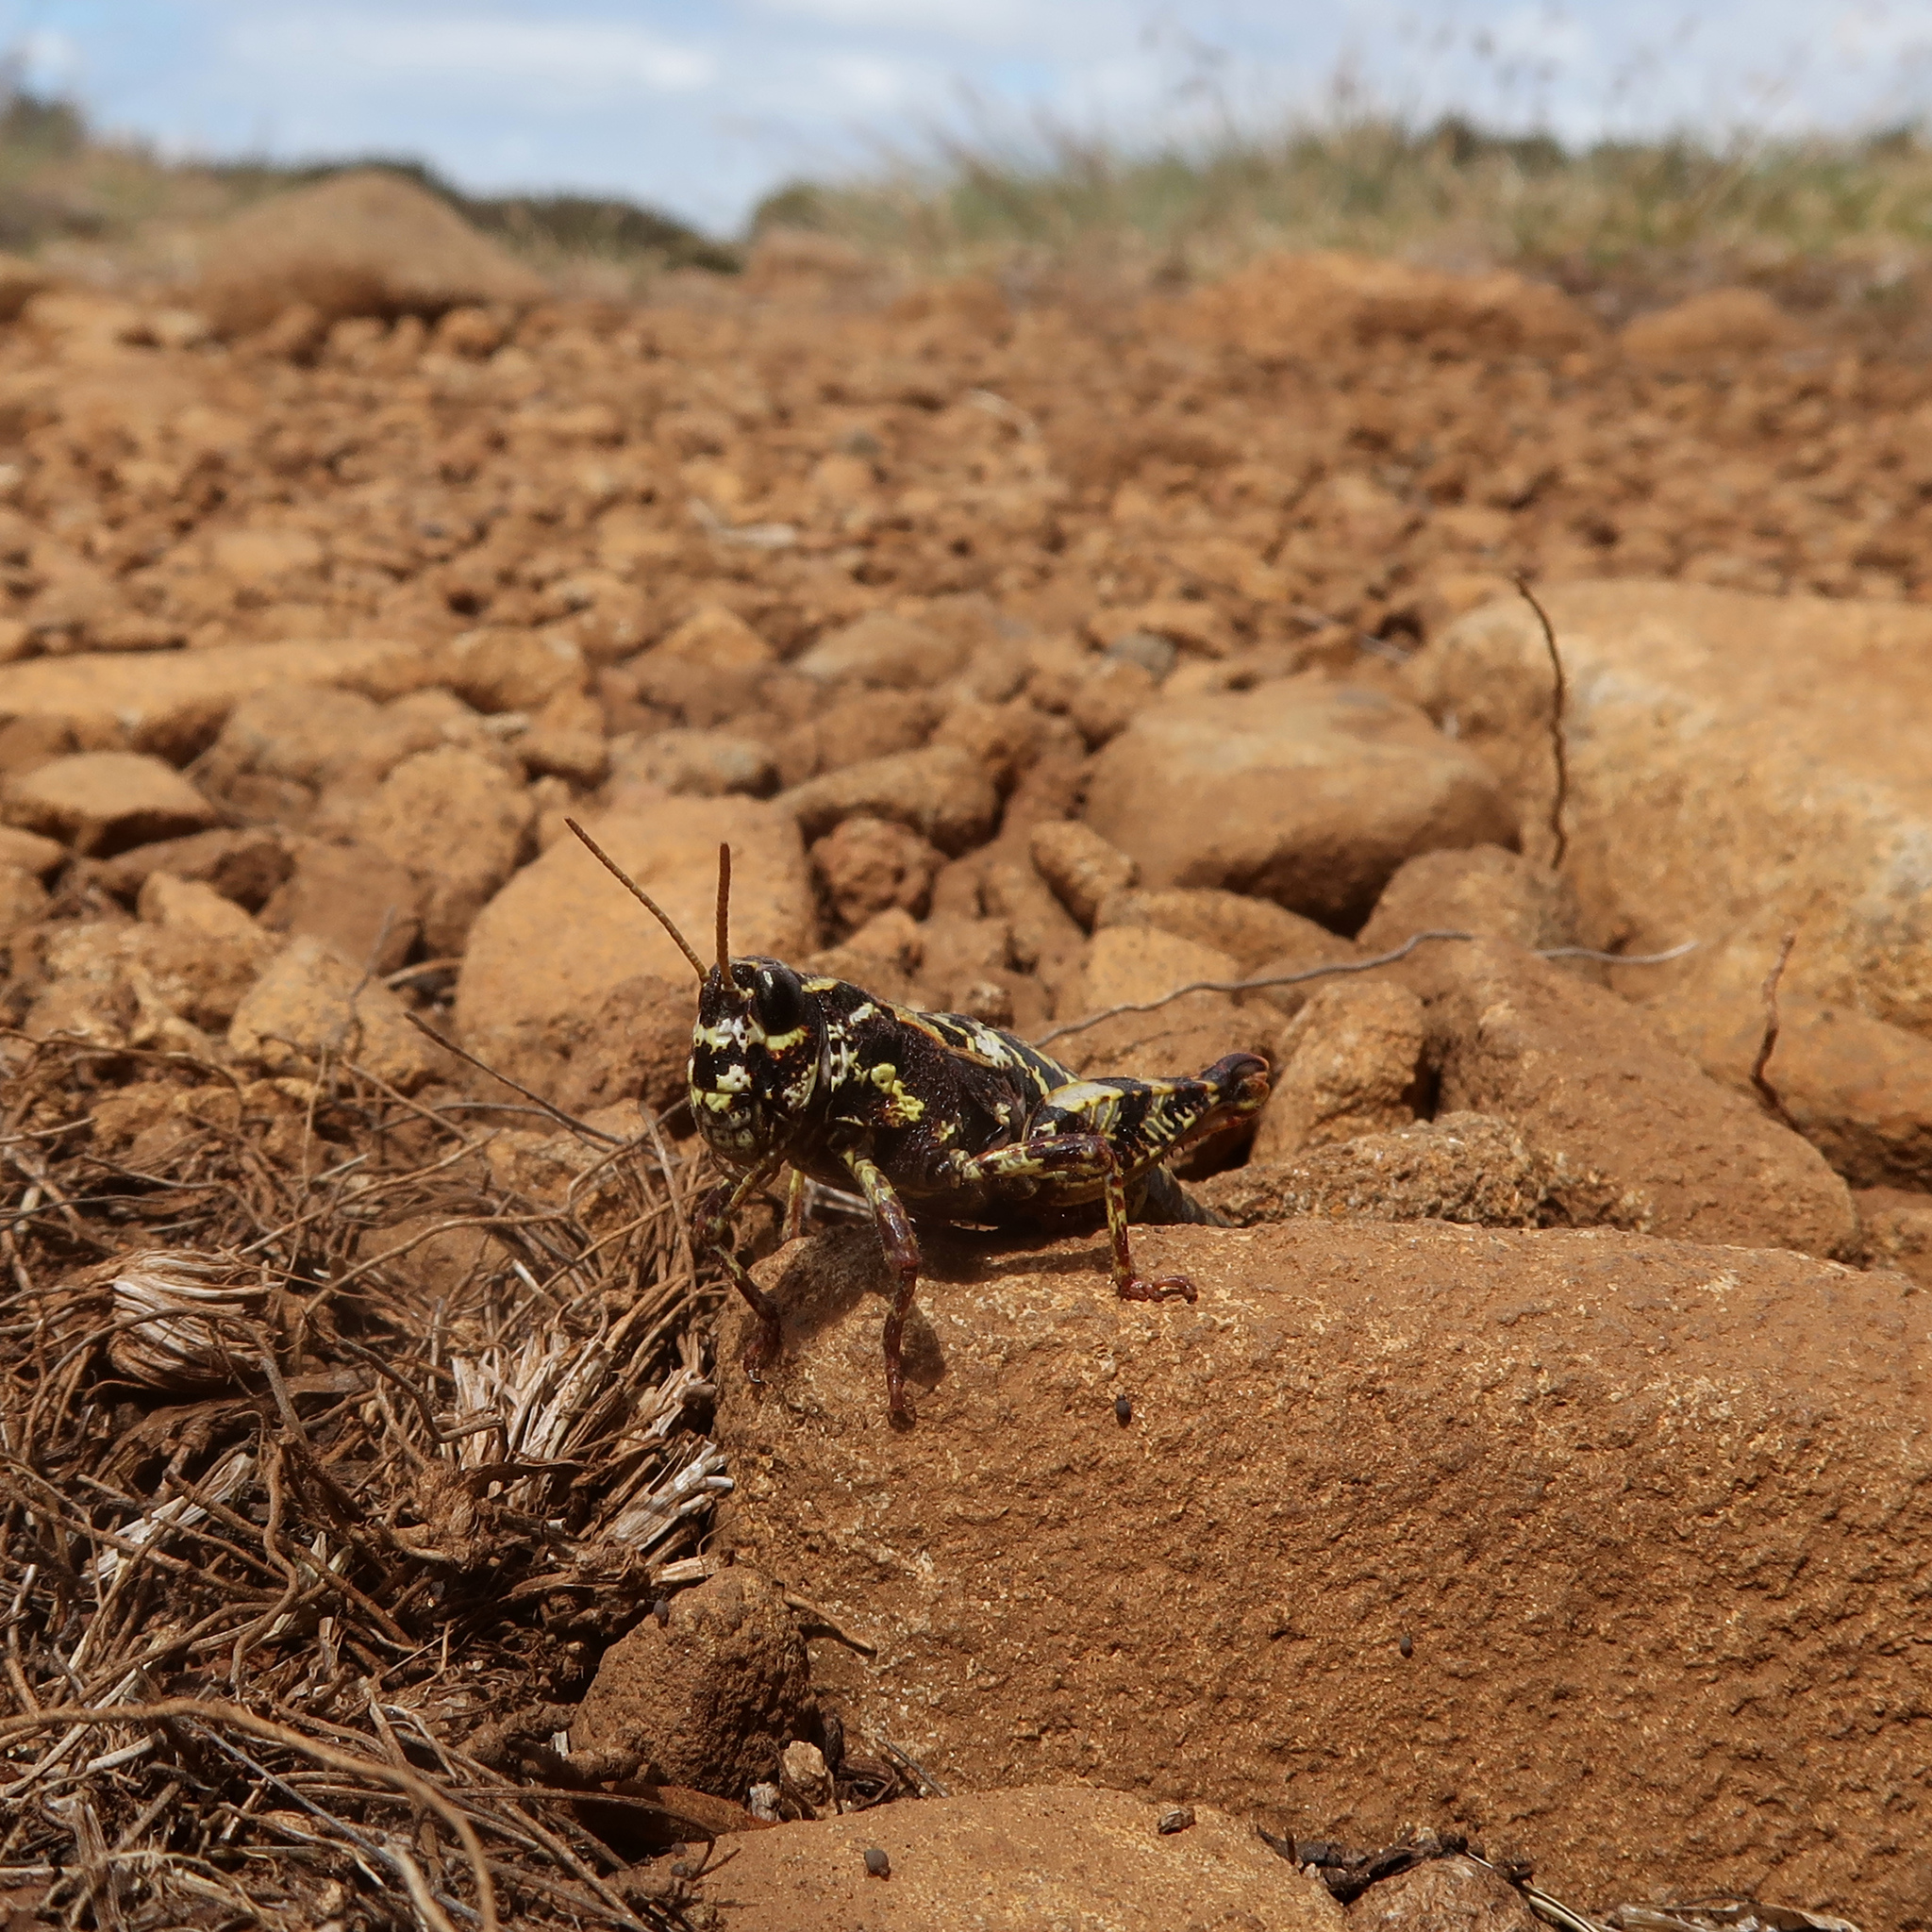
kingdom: Animalia
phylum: Arthropoda
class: Insecta
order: Orthoptera
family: Acrididae
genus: Tasmaniacris
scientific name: Tasmaniacris tasmaniensis
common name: Tasmanian grasshopper
